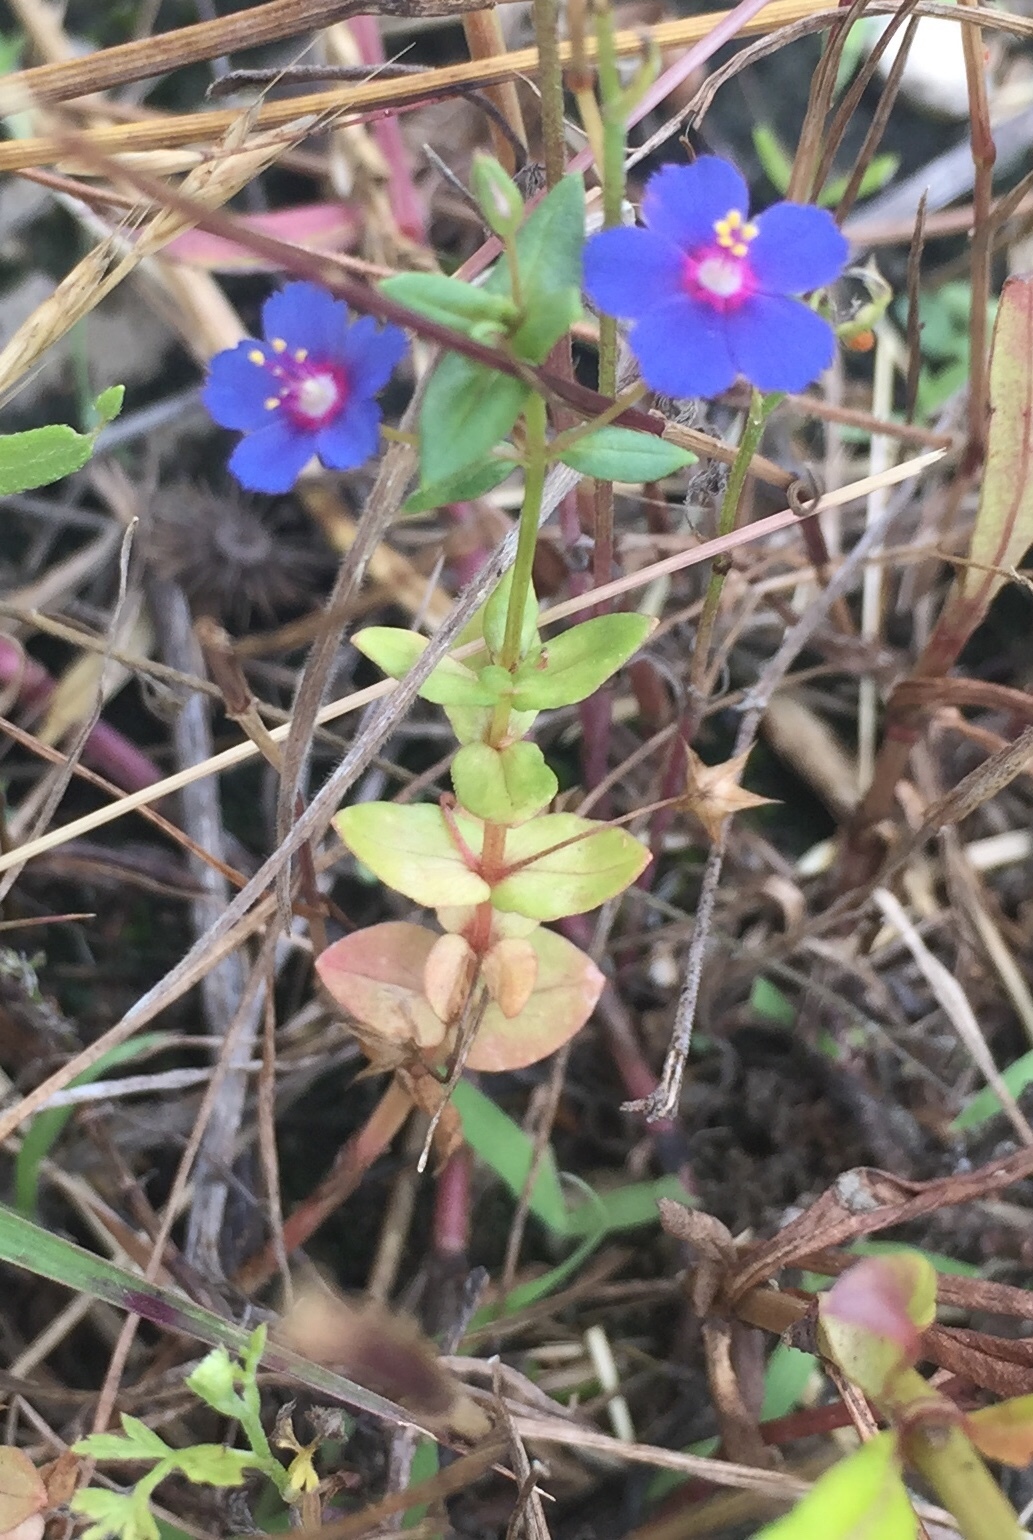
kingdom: Plantae
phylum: Tracheophyta
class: Magnoliopsida
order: Ericales
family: Primulaceae
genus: Lysimachia
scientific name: Lysimachia arvensis
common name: Scarlet pimpernel
